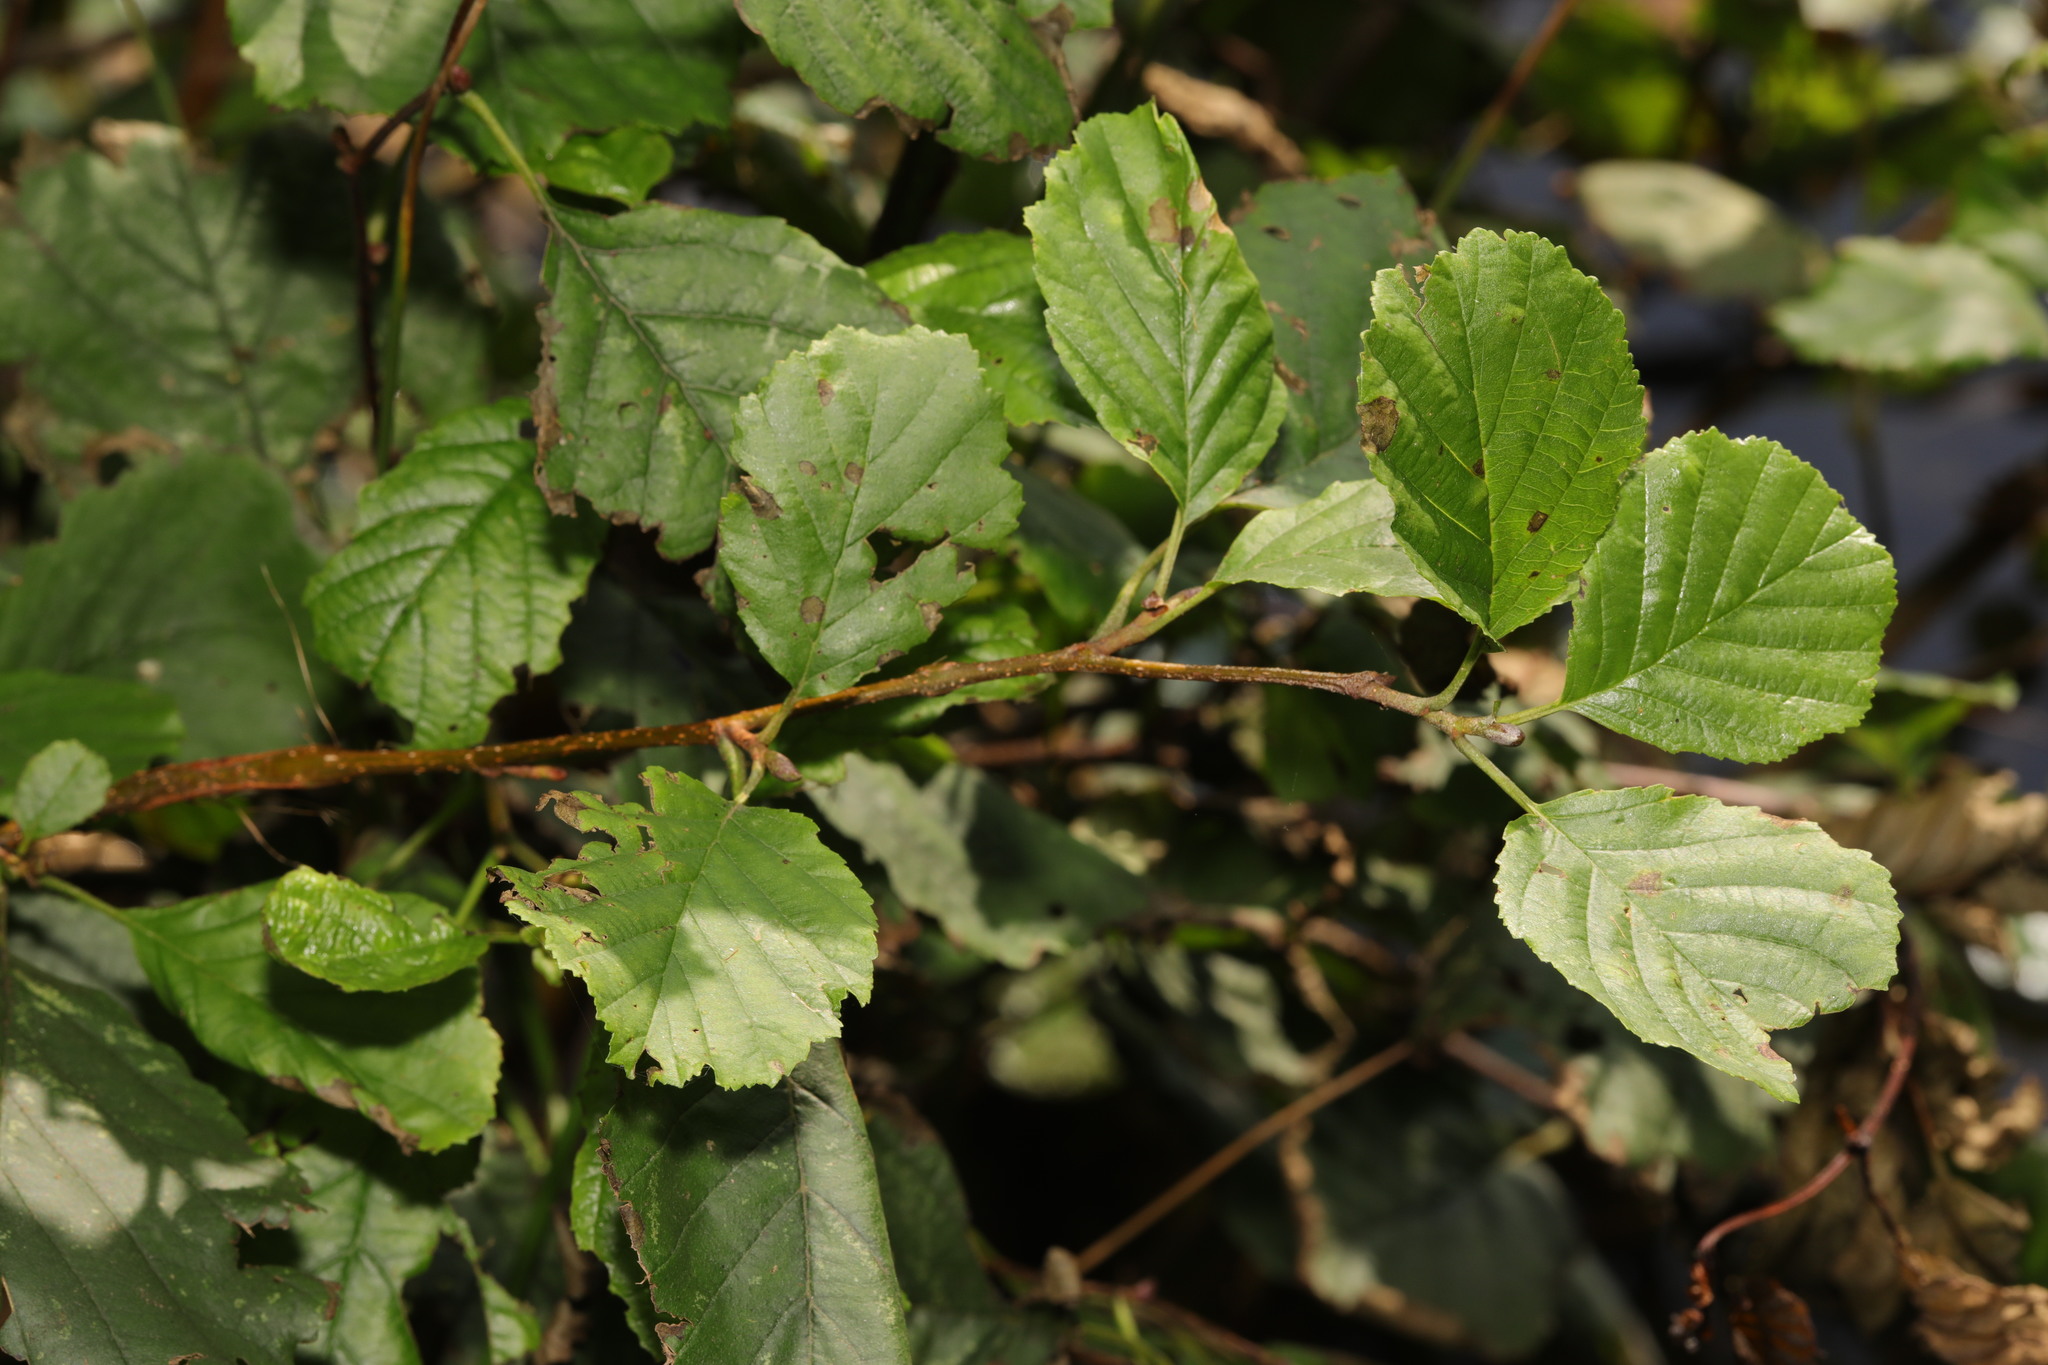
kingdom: Plantae
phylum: Tracheophyta
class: Magnoliopsida
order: Fagales
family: Betulaceae
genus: Alnus
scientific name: Alnus glutinosa
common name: Black alder
